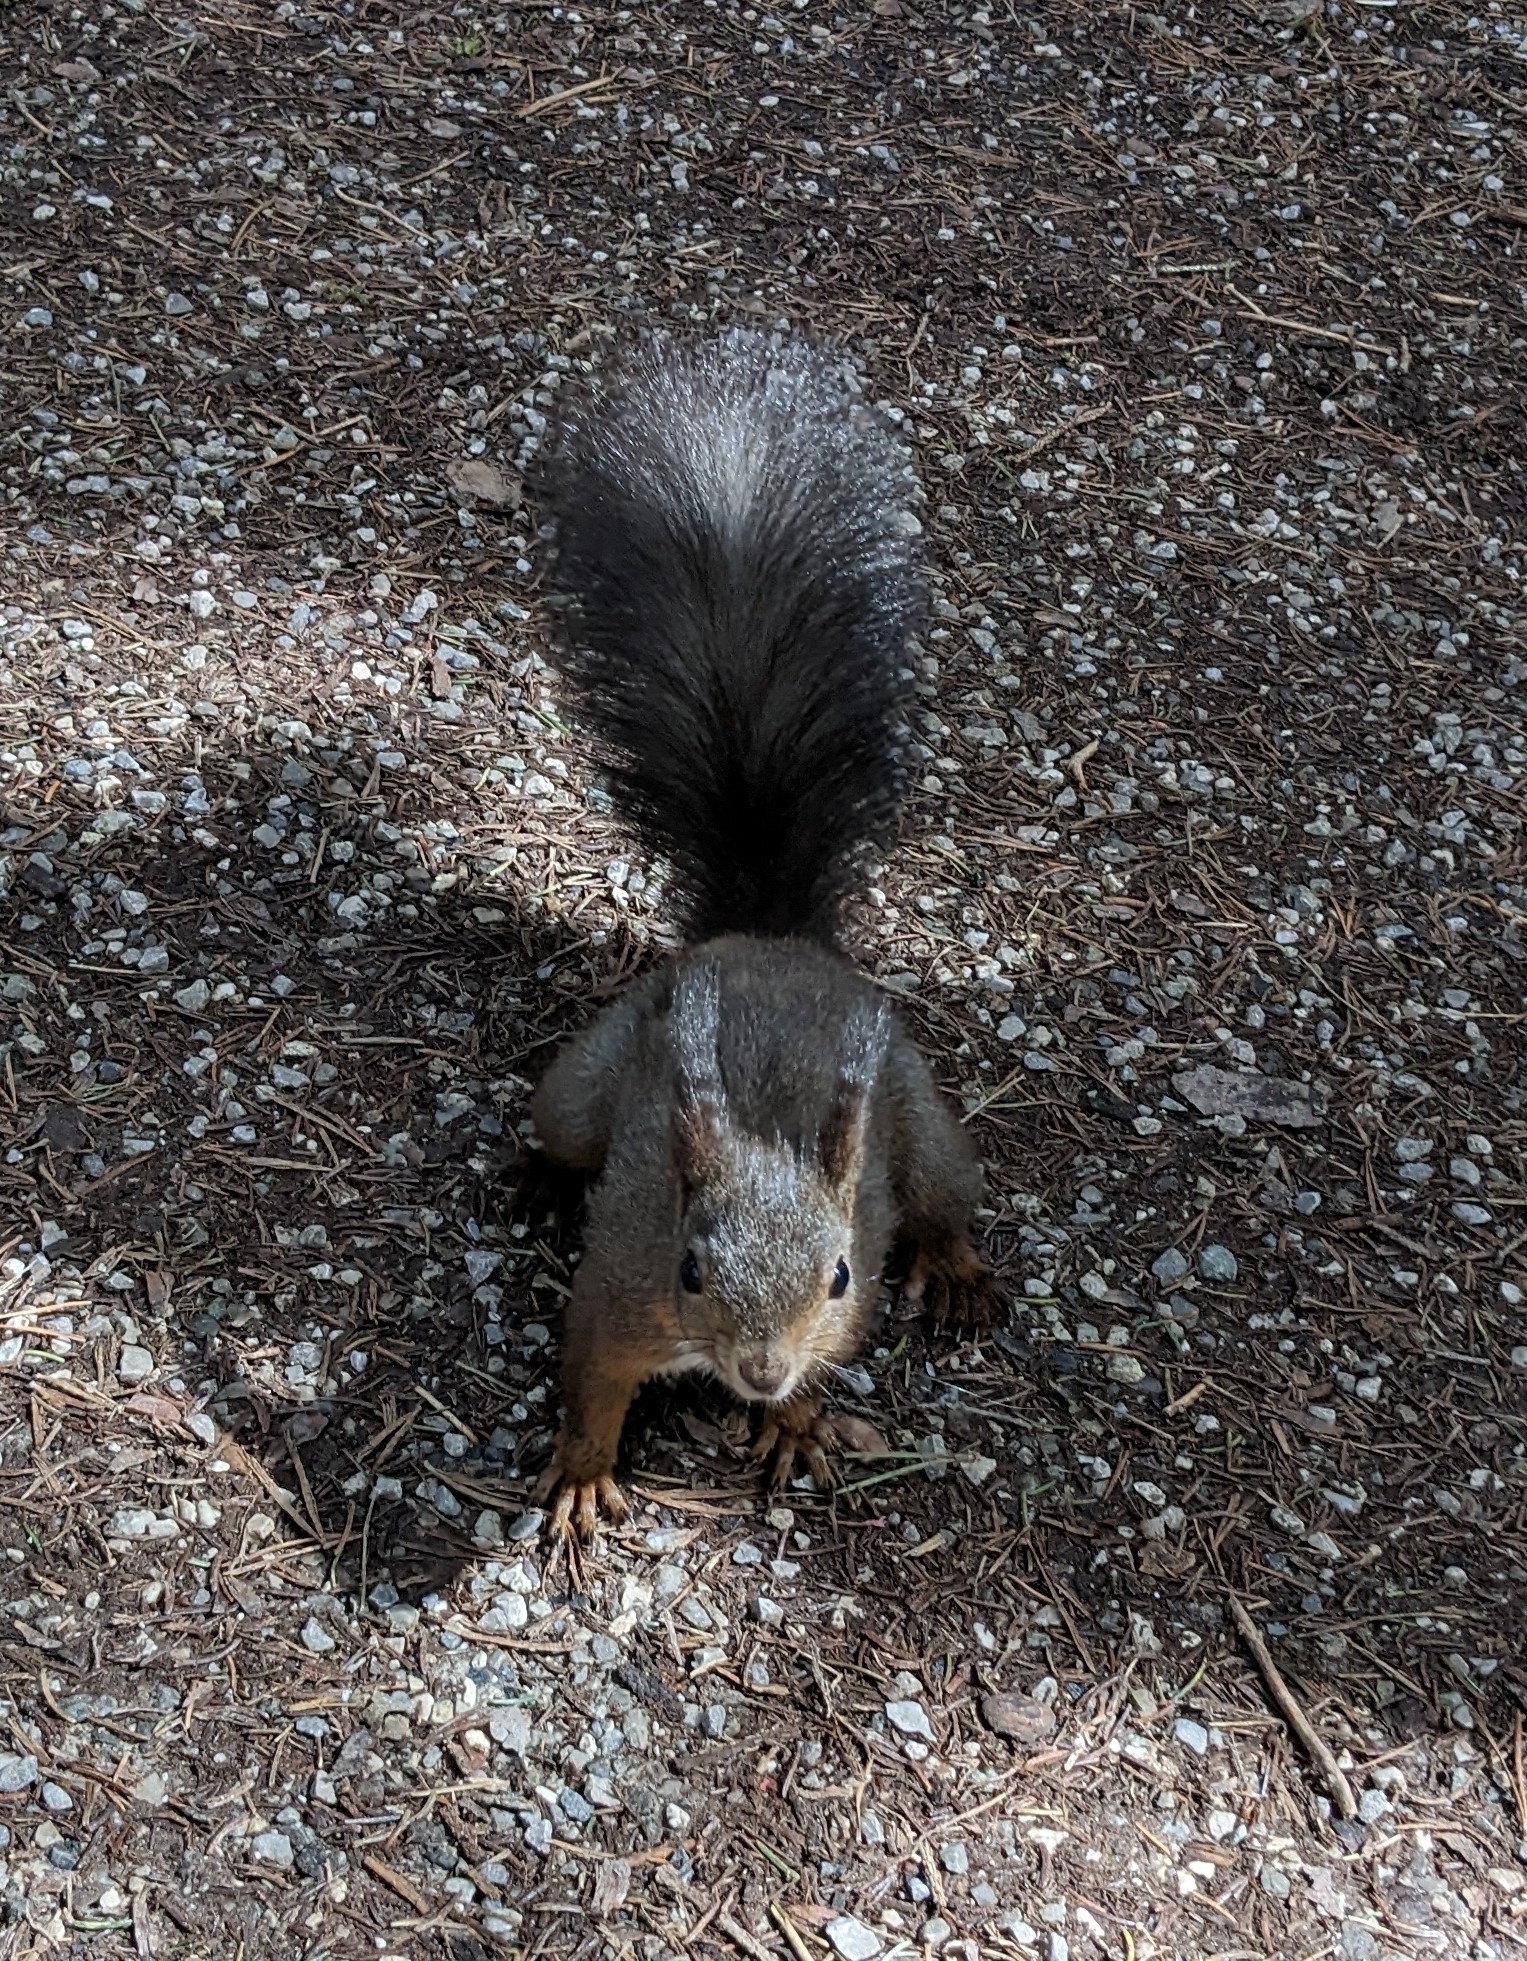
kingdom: Animalia
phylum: Chordata
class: Mammalia
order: Rodentia
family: Sciuridae
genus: Sciurus
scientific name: Sciurus vulgaris
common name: Eurasian red squirrel
